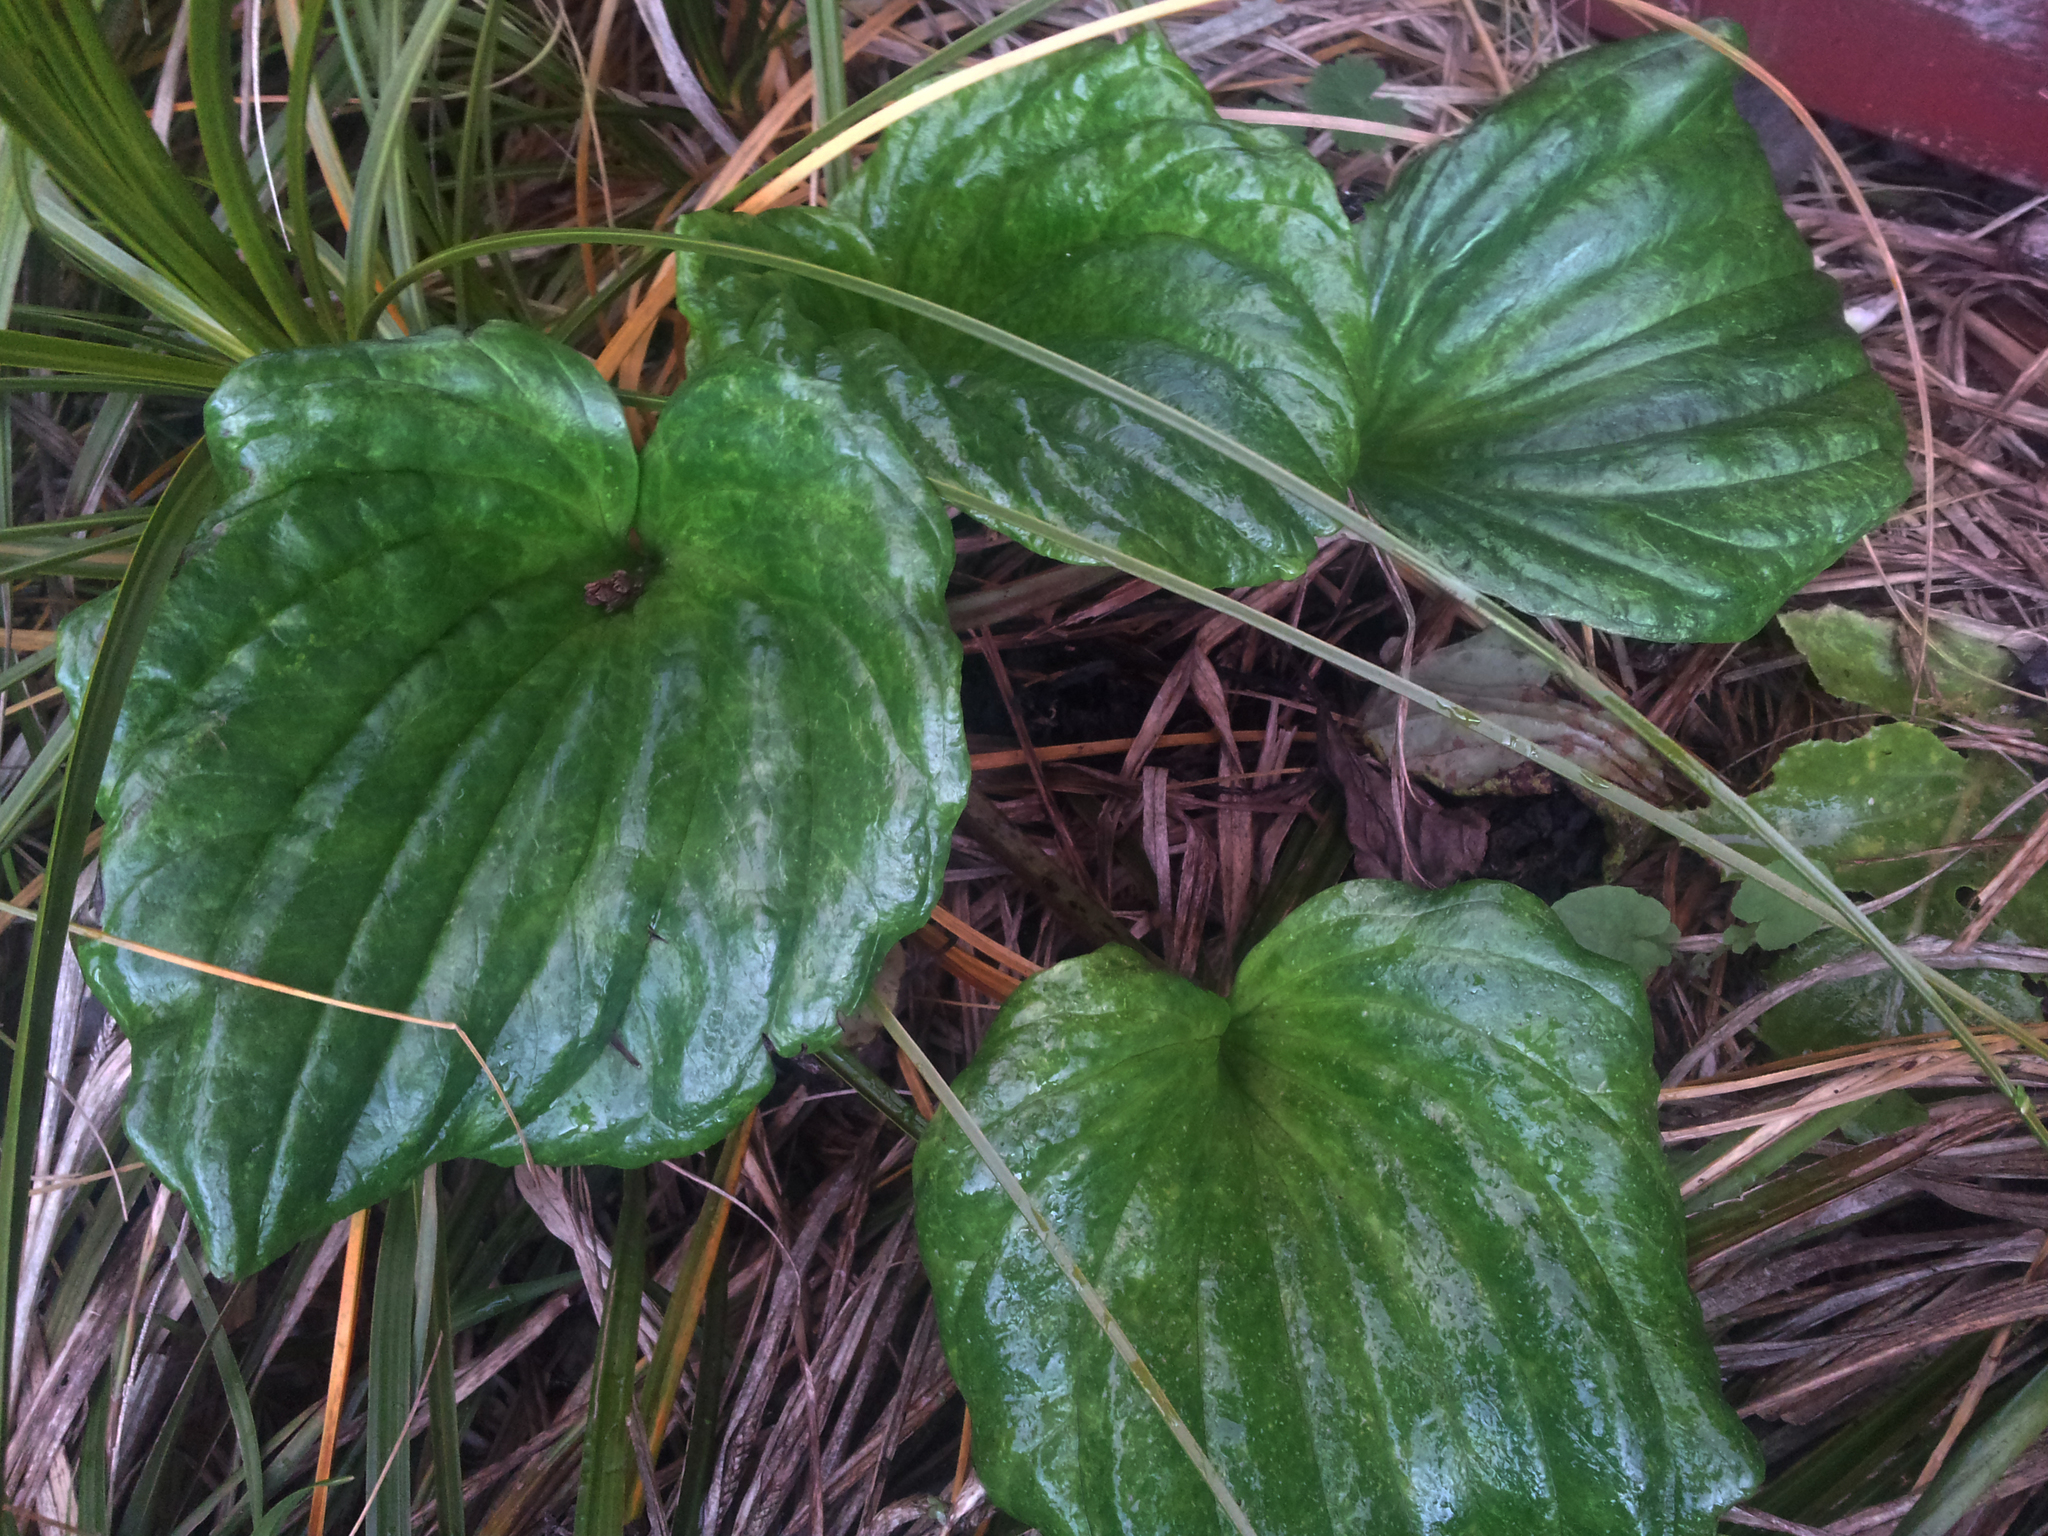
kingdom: Fungi
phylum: Basidiomycota
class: Pucciniomycetes
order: Pucciniales
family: Pucciniastraceae
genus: Pucciniastrum
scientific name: Pucciniastrum myosotidii
